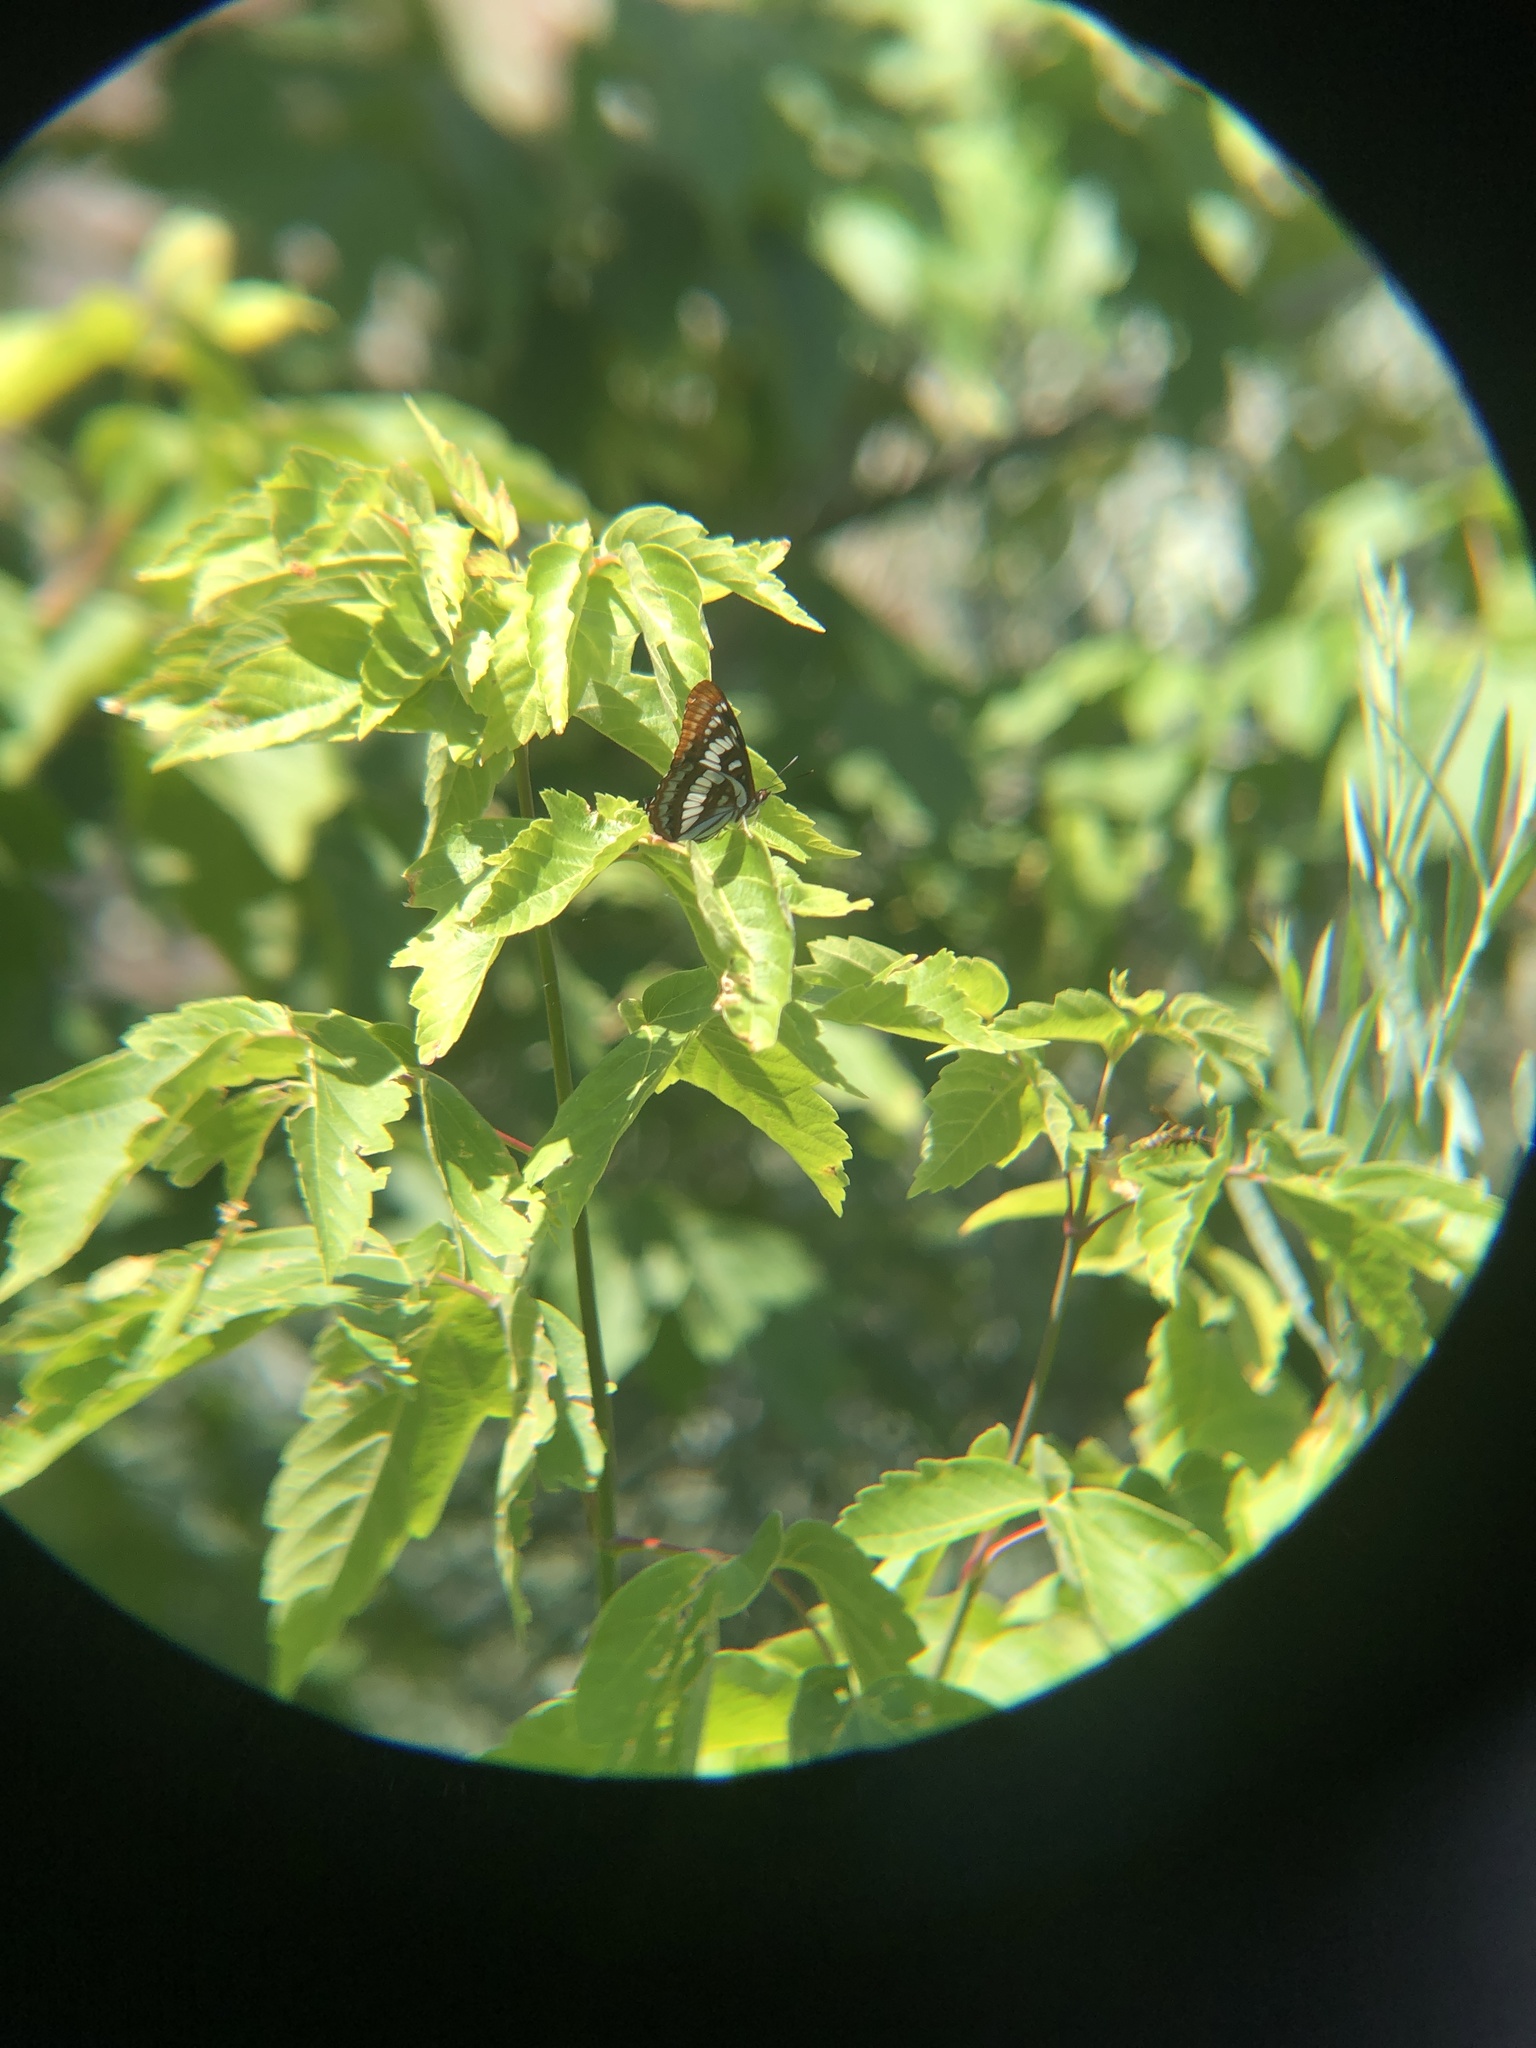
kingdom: Animalia
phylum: Arthropoda
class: Insecta
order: Lepidoptera
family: Nymphalidae
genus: Limenitis
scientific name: Limenitis lorquini
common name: Lorquin's admiral
